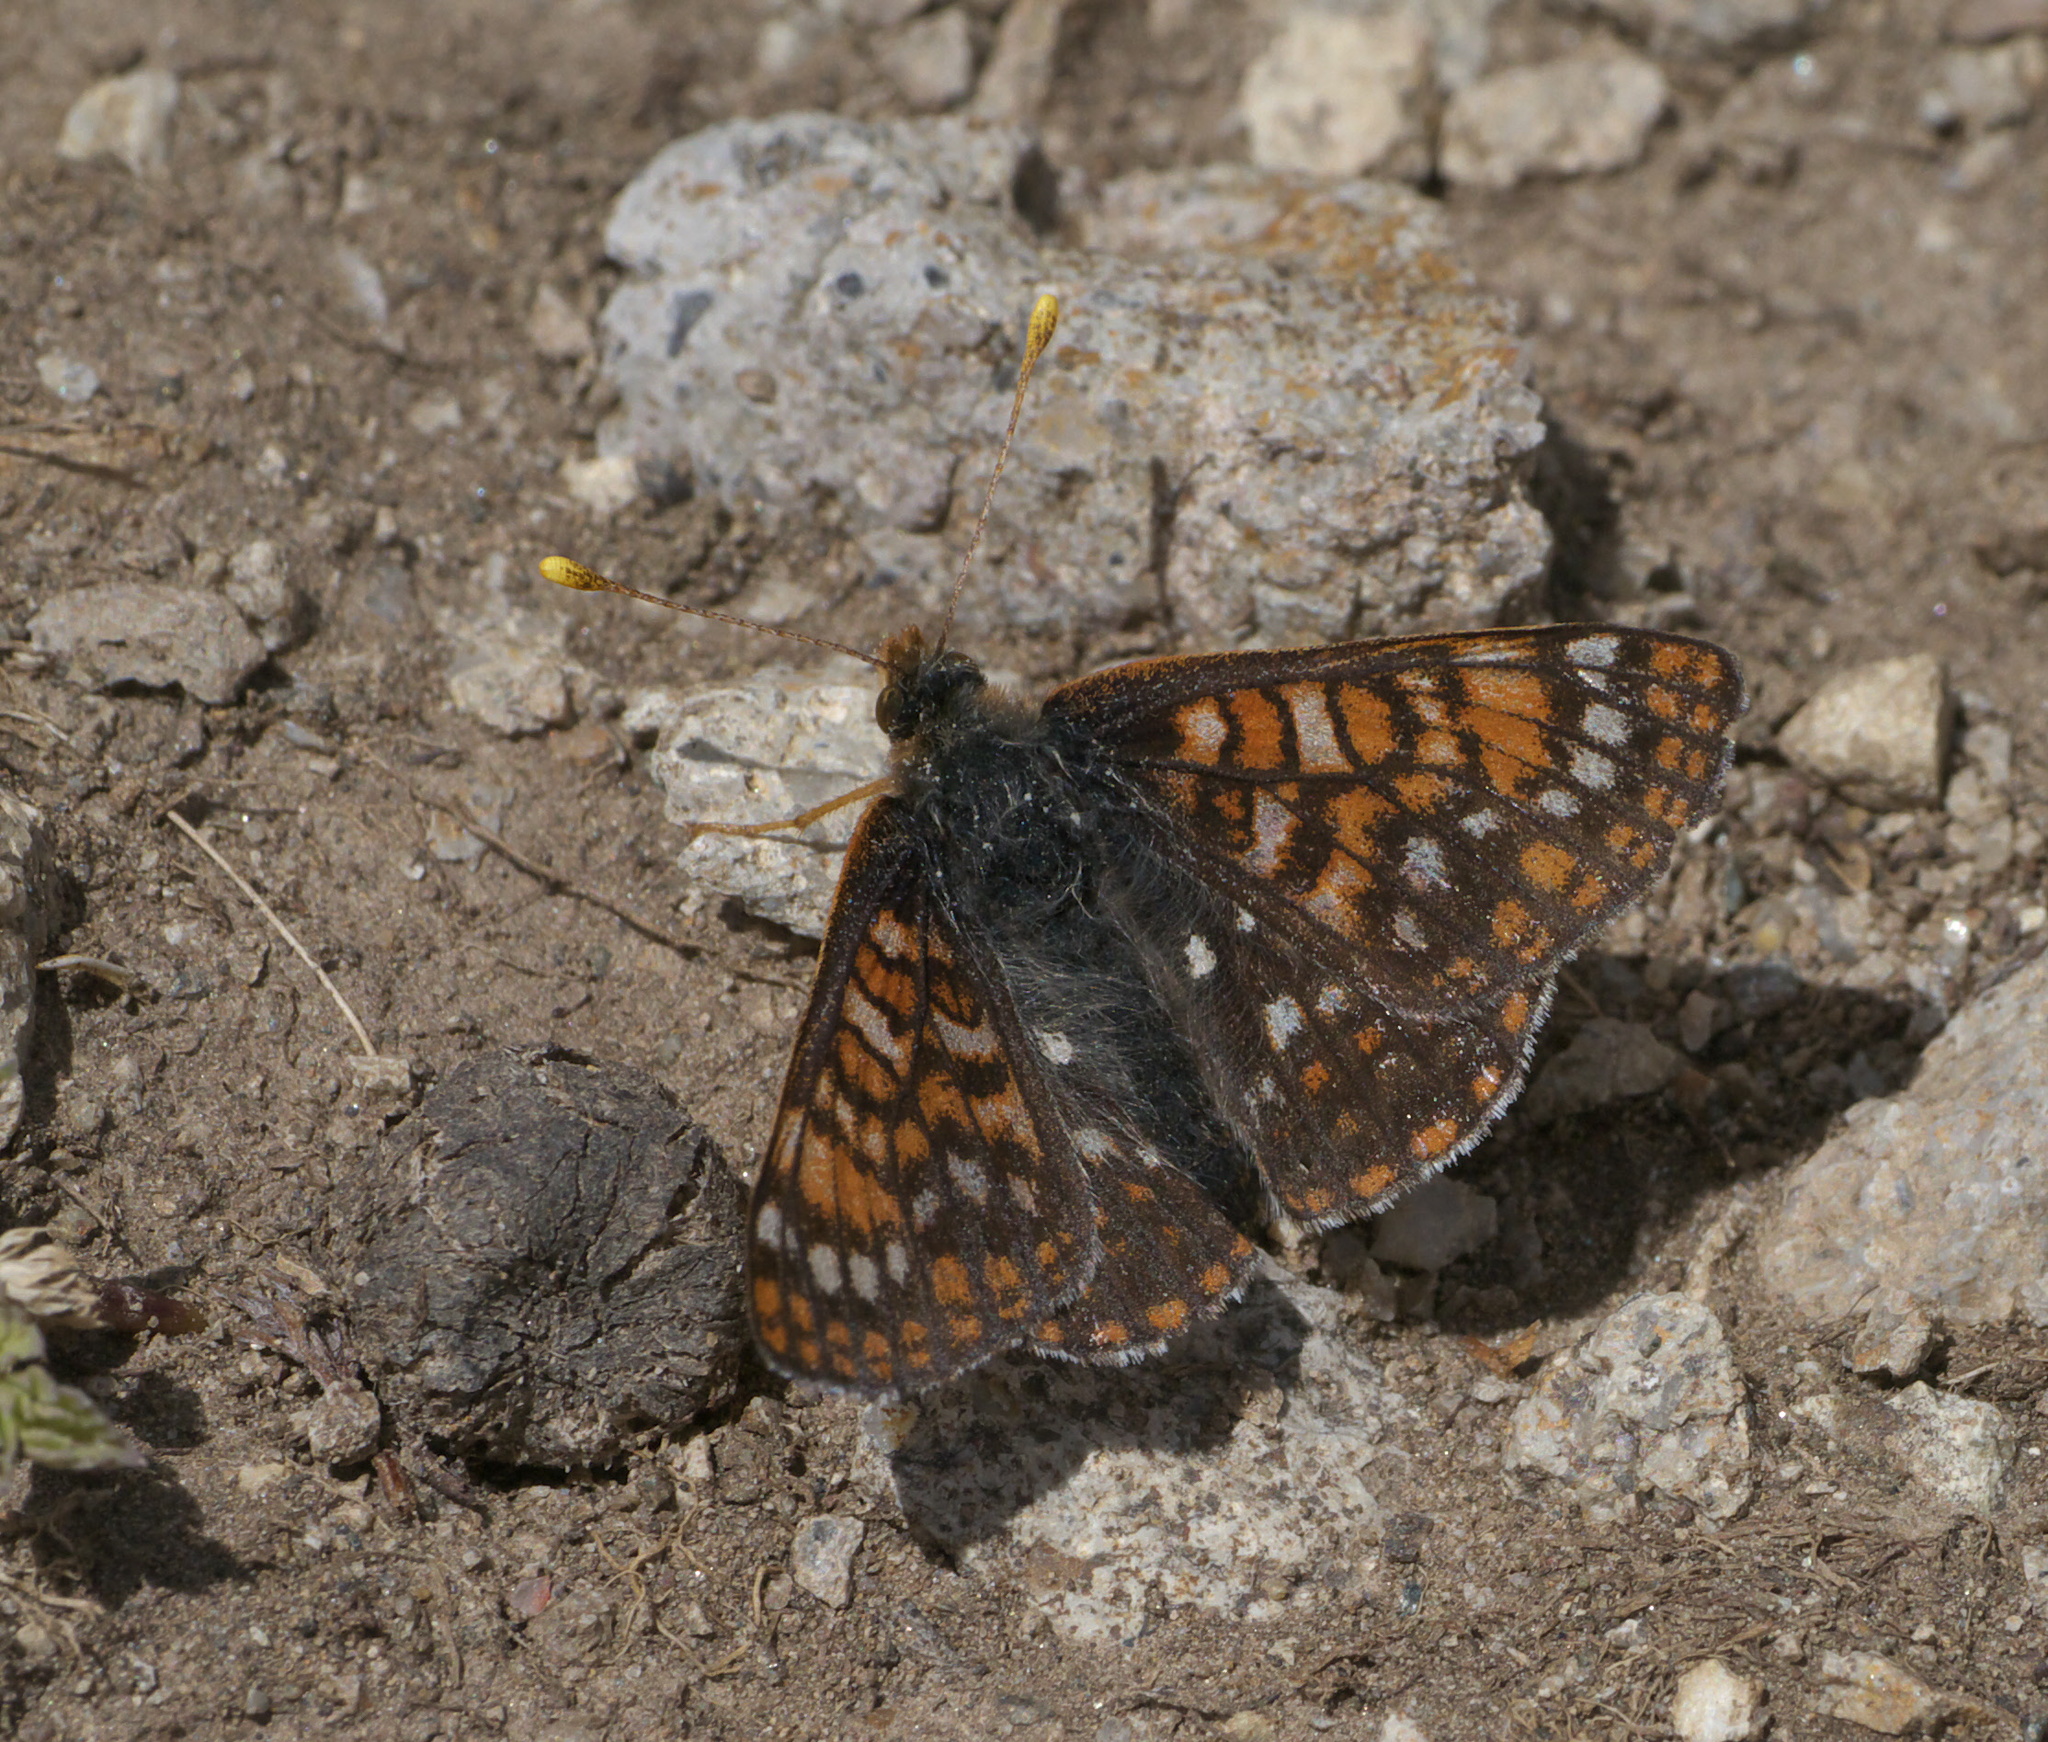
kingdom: Animalia
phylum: Arthropoda
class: Insecta
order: Lepidoptera
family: Nymphalidae
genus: Occidryas
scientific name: Occidryas anicia
